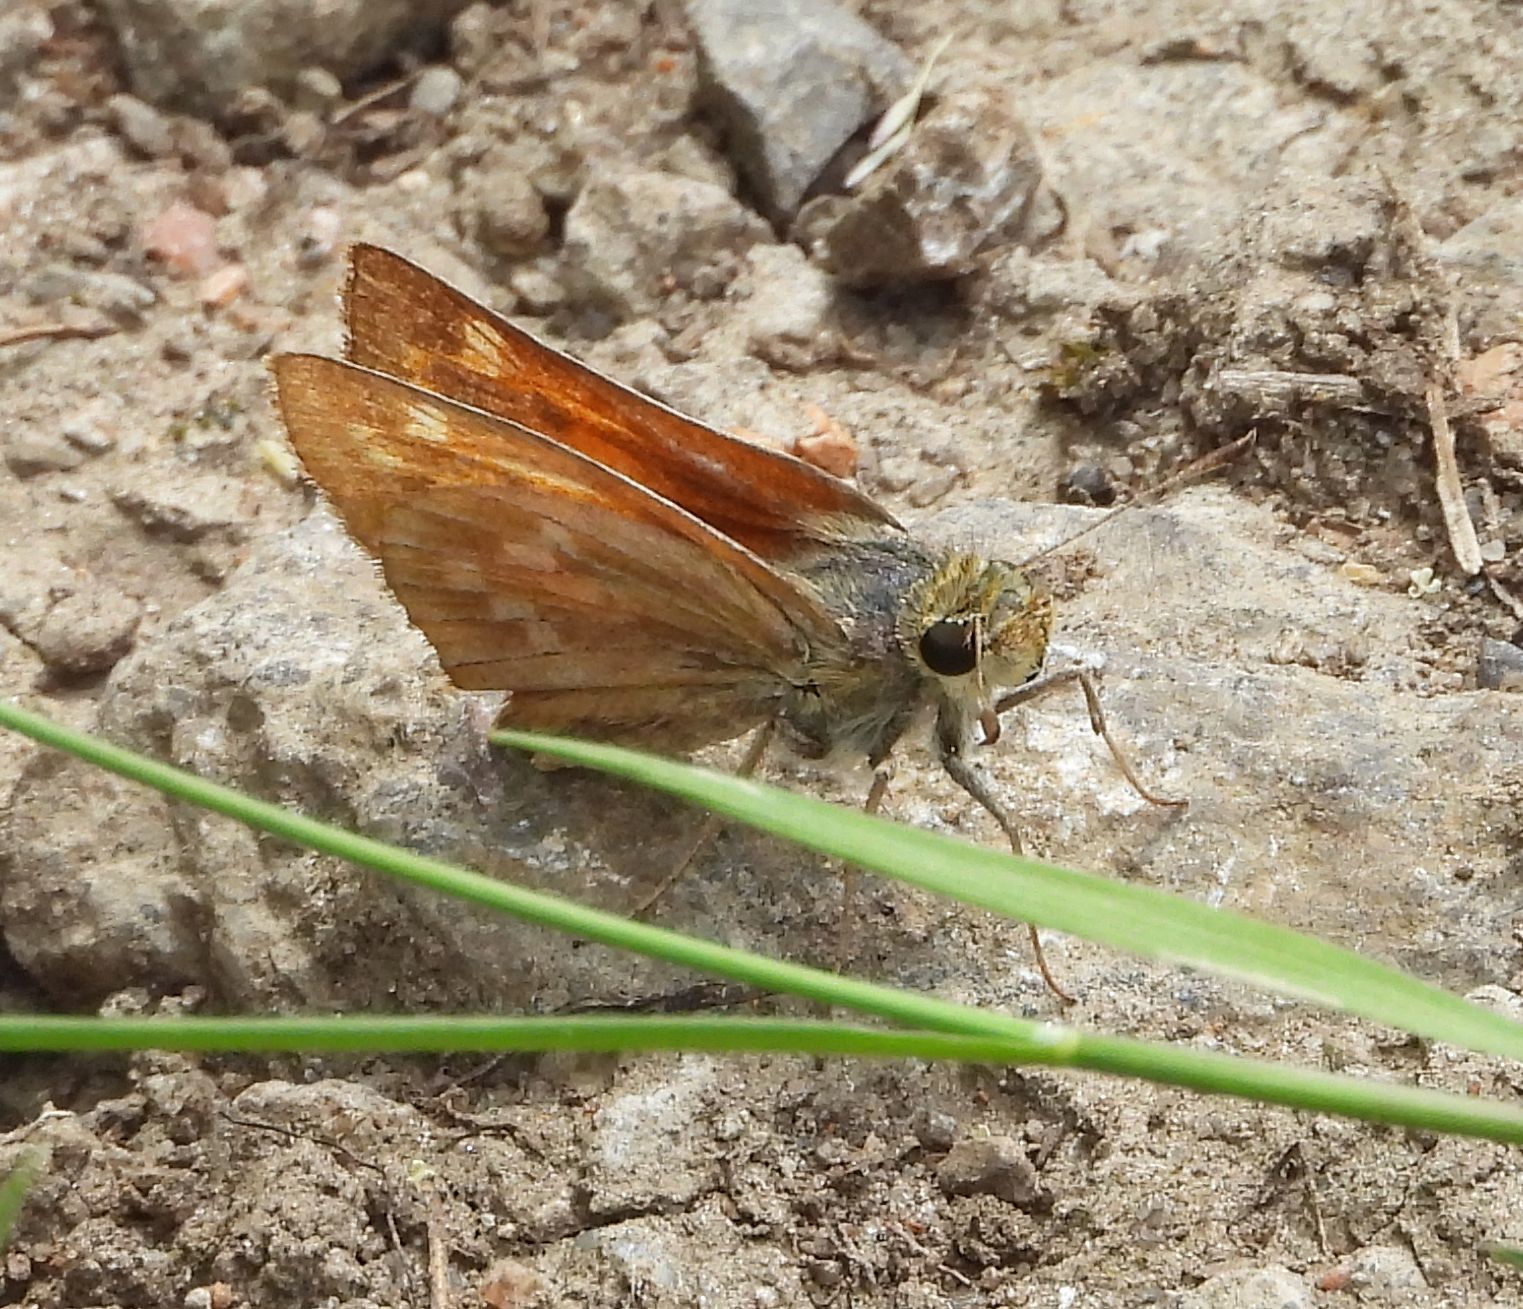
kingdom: Animalia
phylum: Arthropoda
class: Insecta
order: Lepidoptera
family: Hesperiidae
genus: Hesperia
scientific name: Hesperia sassacus
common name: Indian skipper
